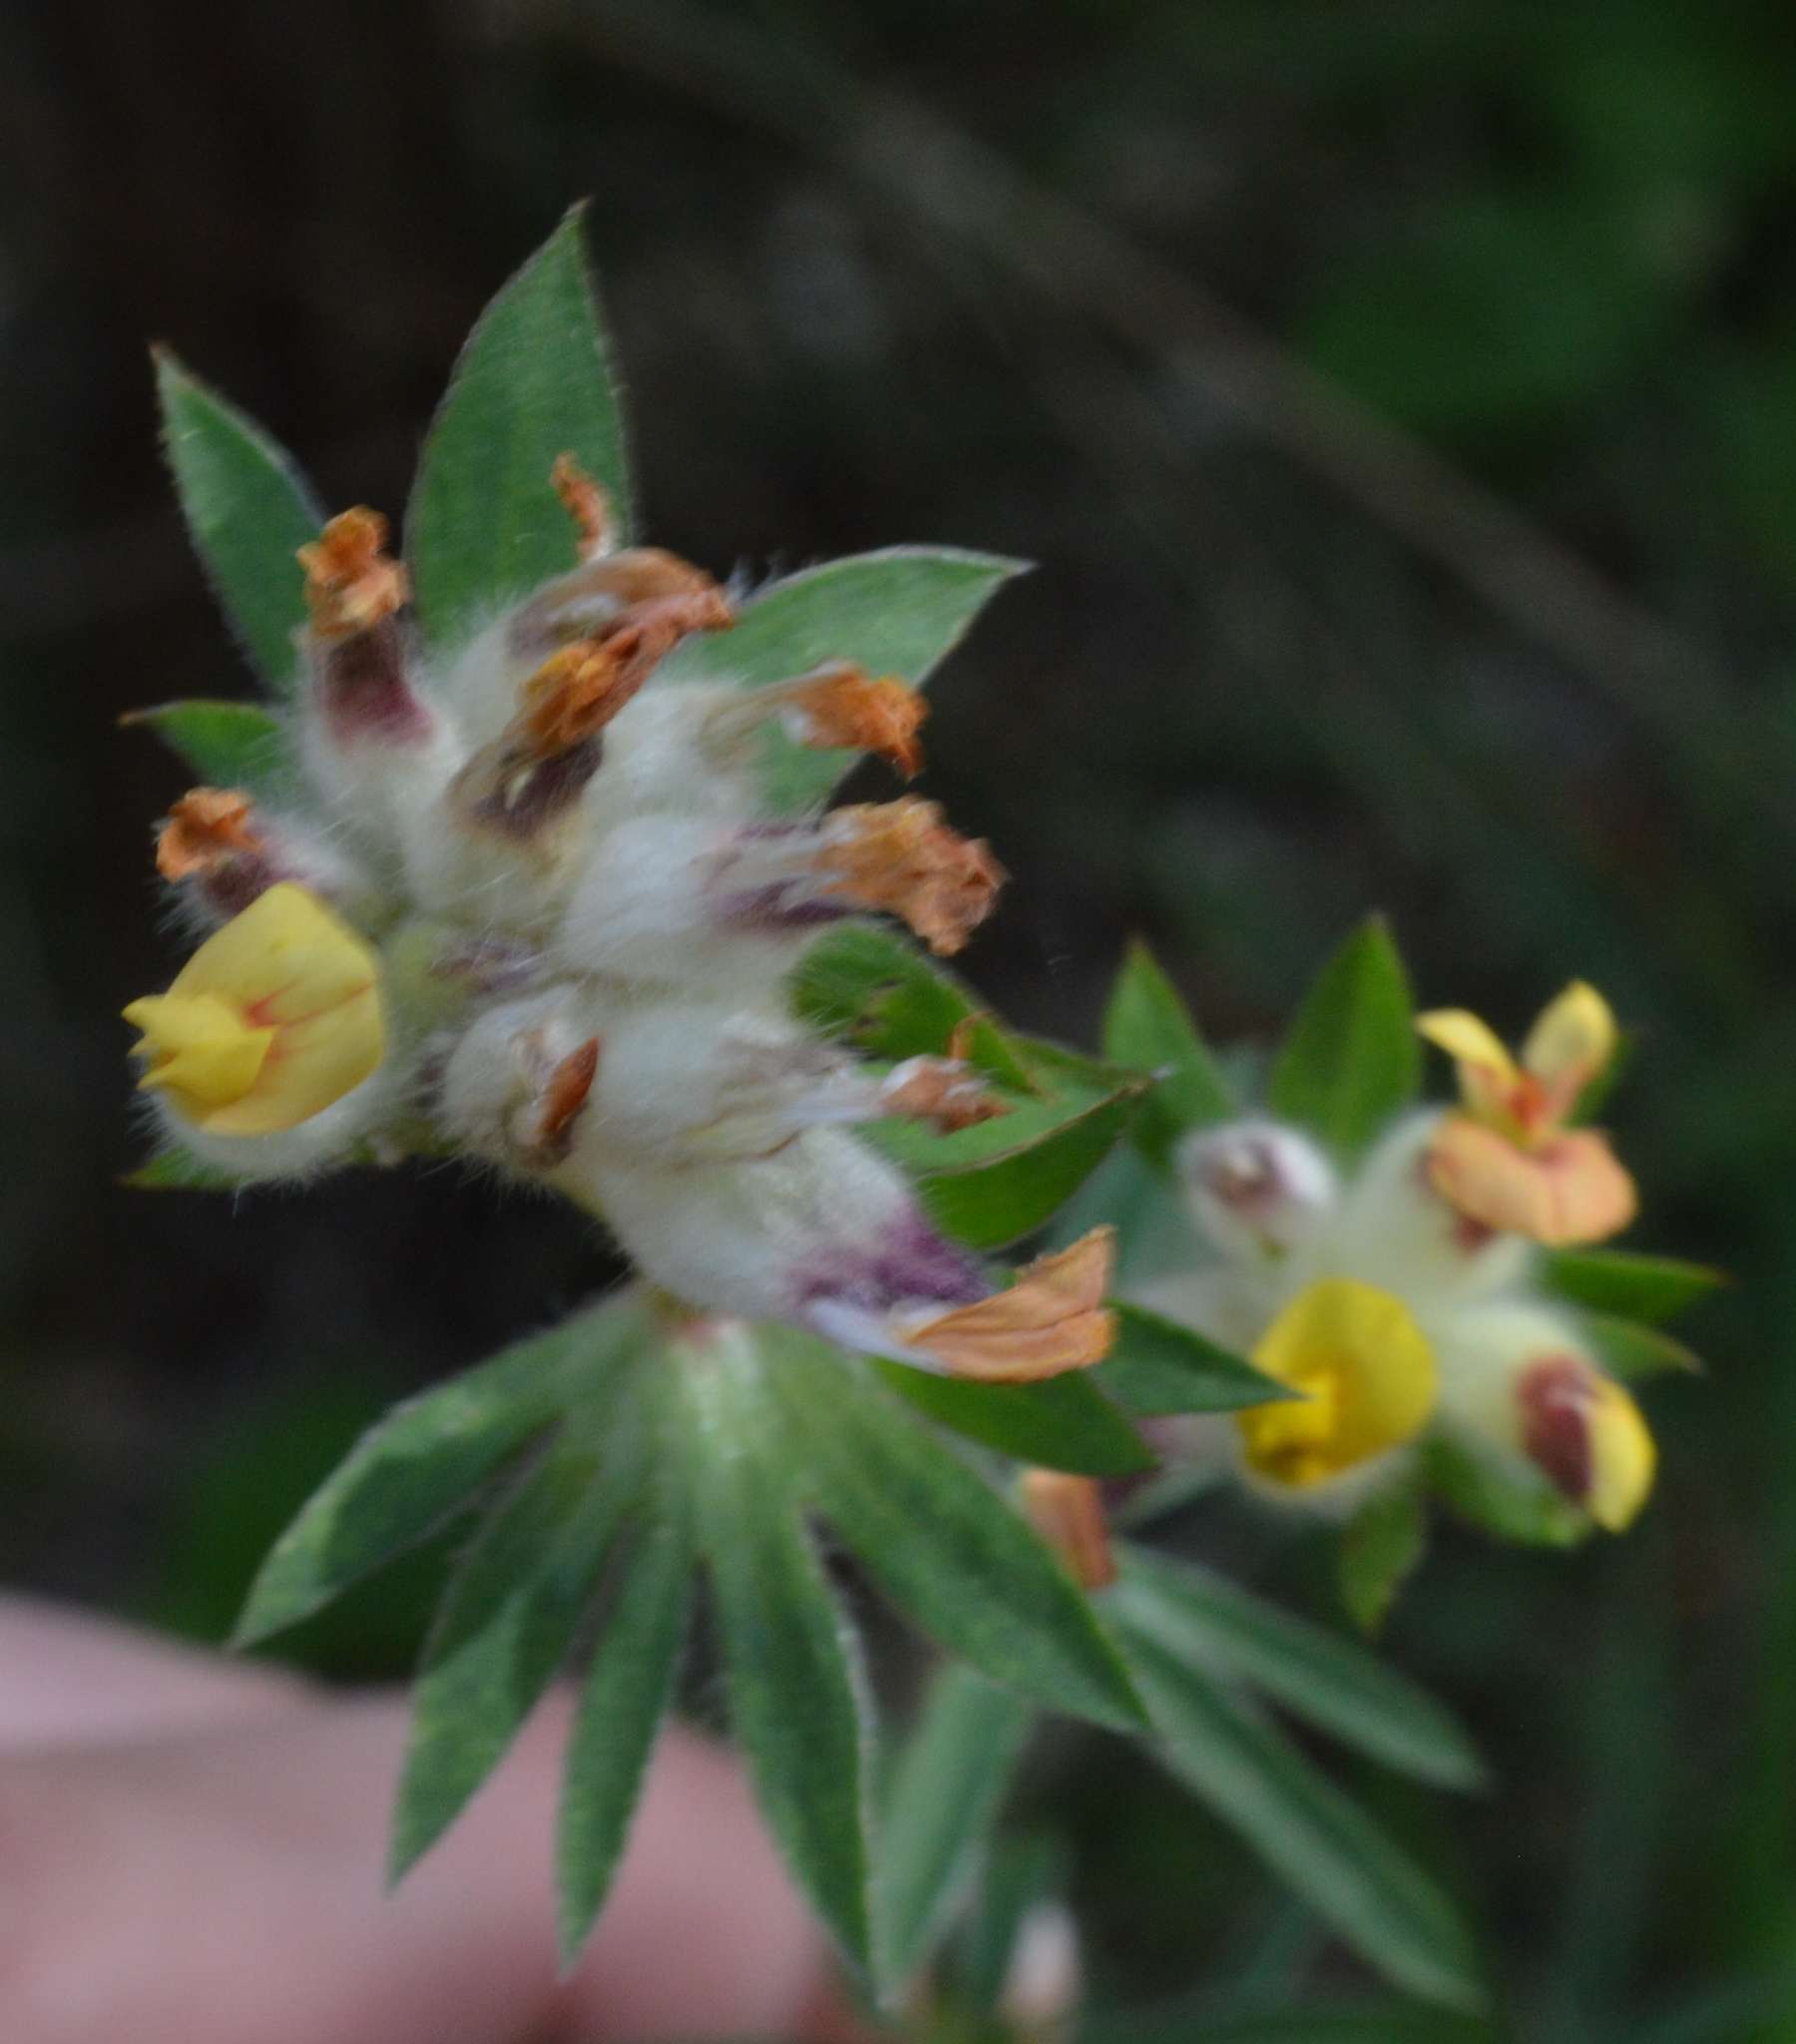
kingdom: Plantae
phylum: Tracheophyta
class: Magnoliopsida
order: Fabales
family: Fabaceae
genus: Anthyllis
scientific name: Anthyllis vulneraria
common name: Kidney vetch
